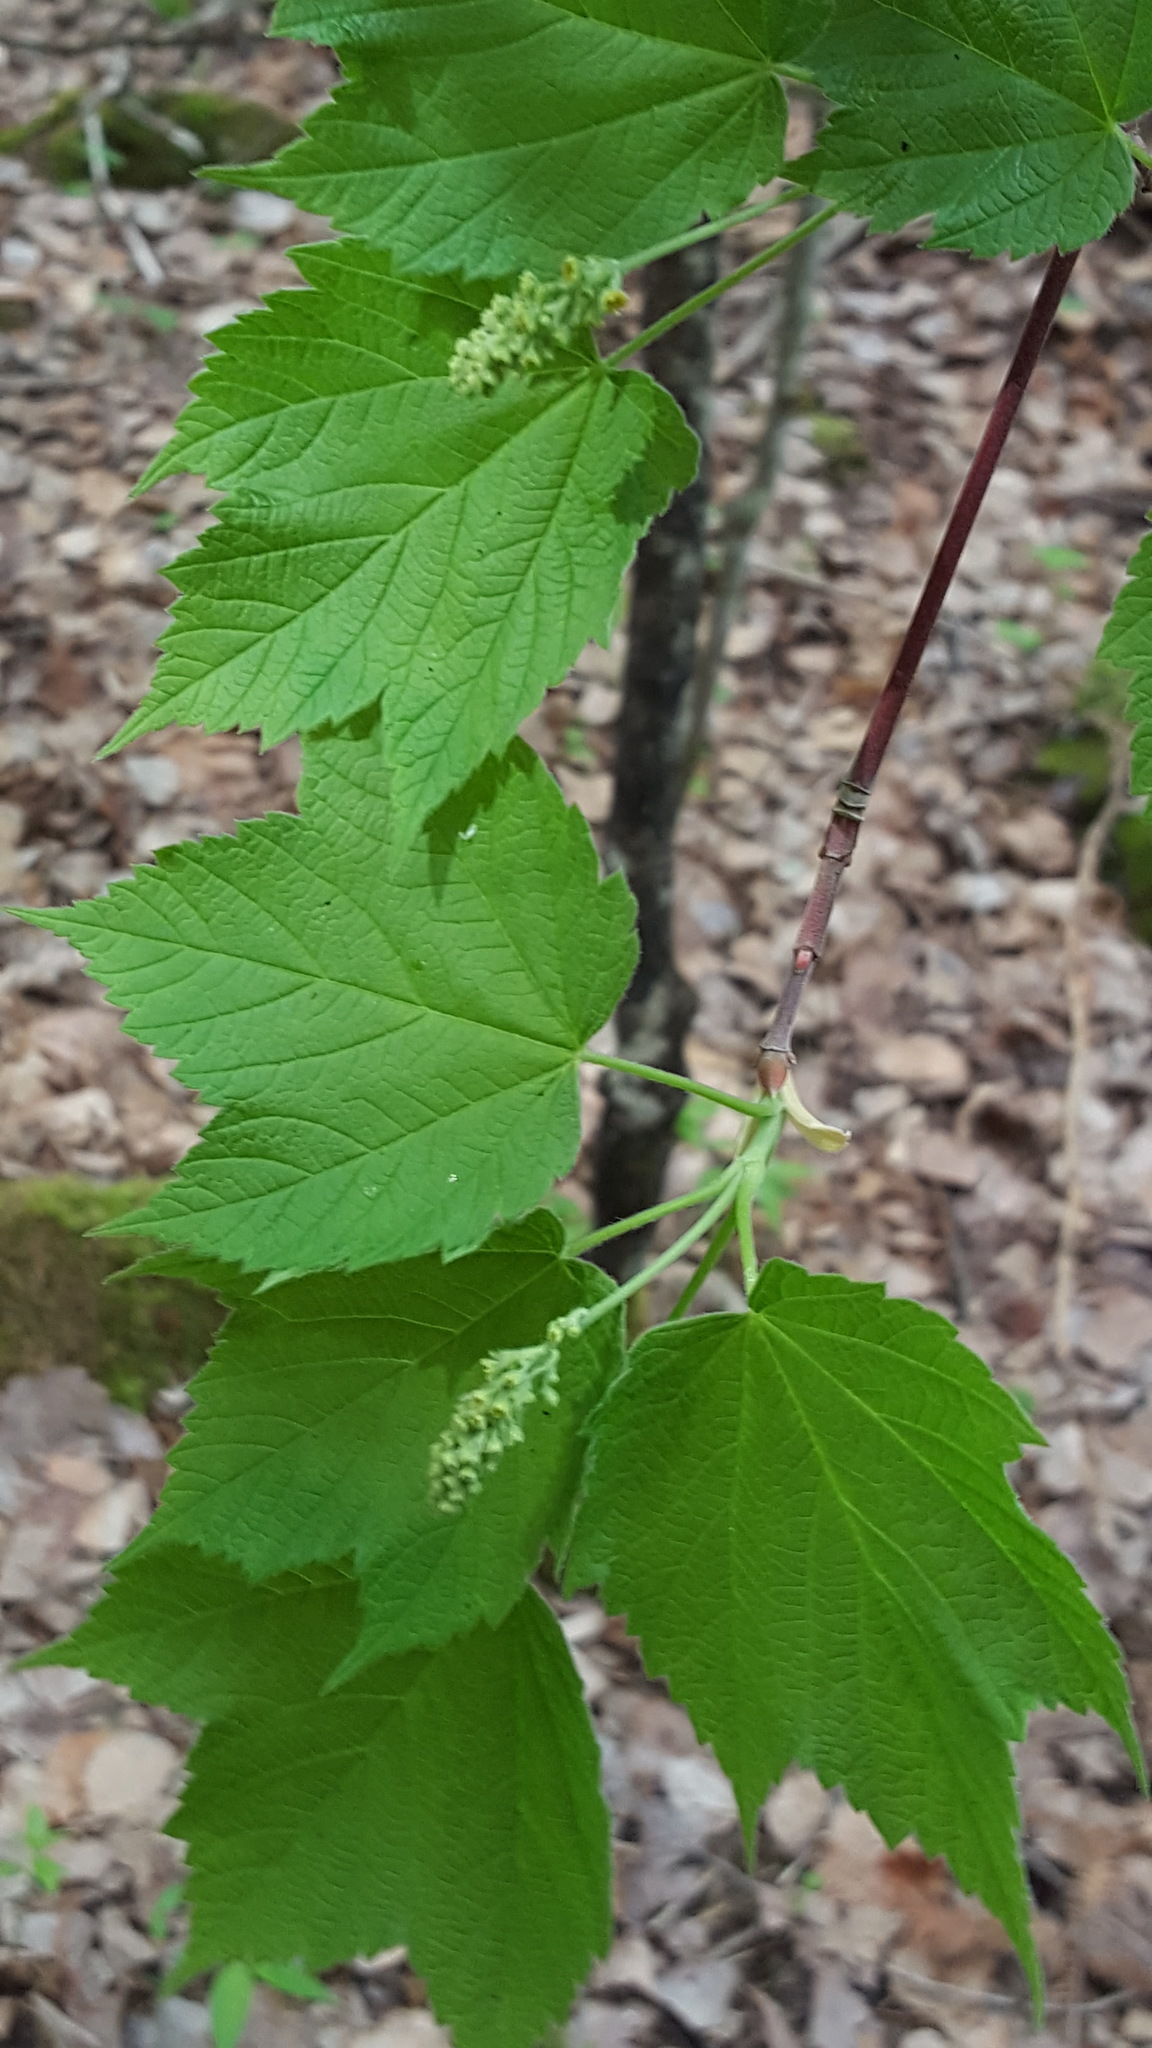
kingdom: Plantae
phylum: Tracheophyta
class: Magnoliopsida
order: Sapindales
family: Sapindaceae
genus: Acer
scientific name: Acer spicatum
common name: Mountain maple
